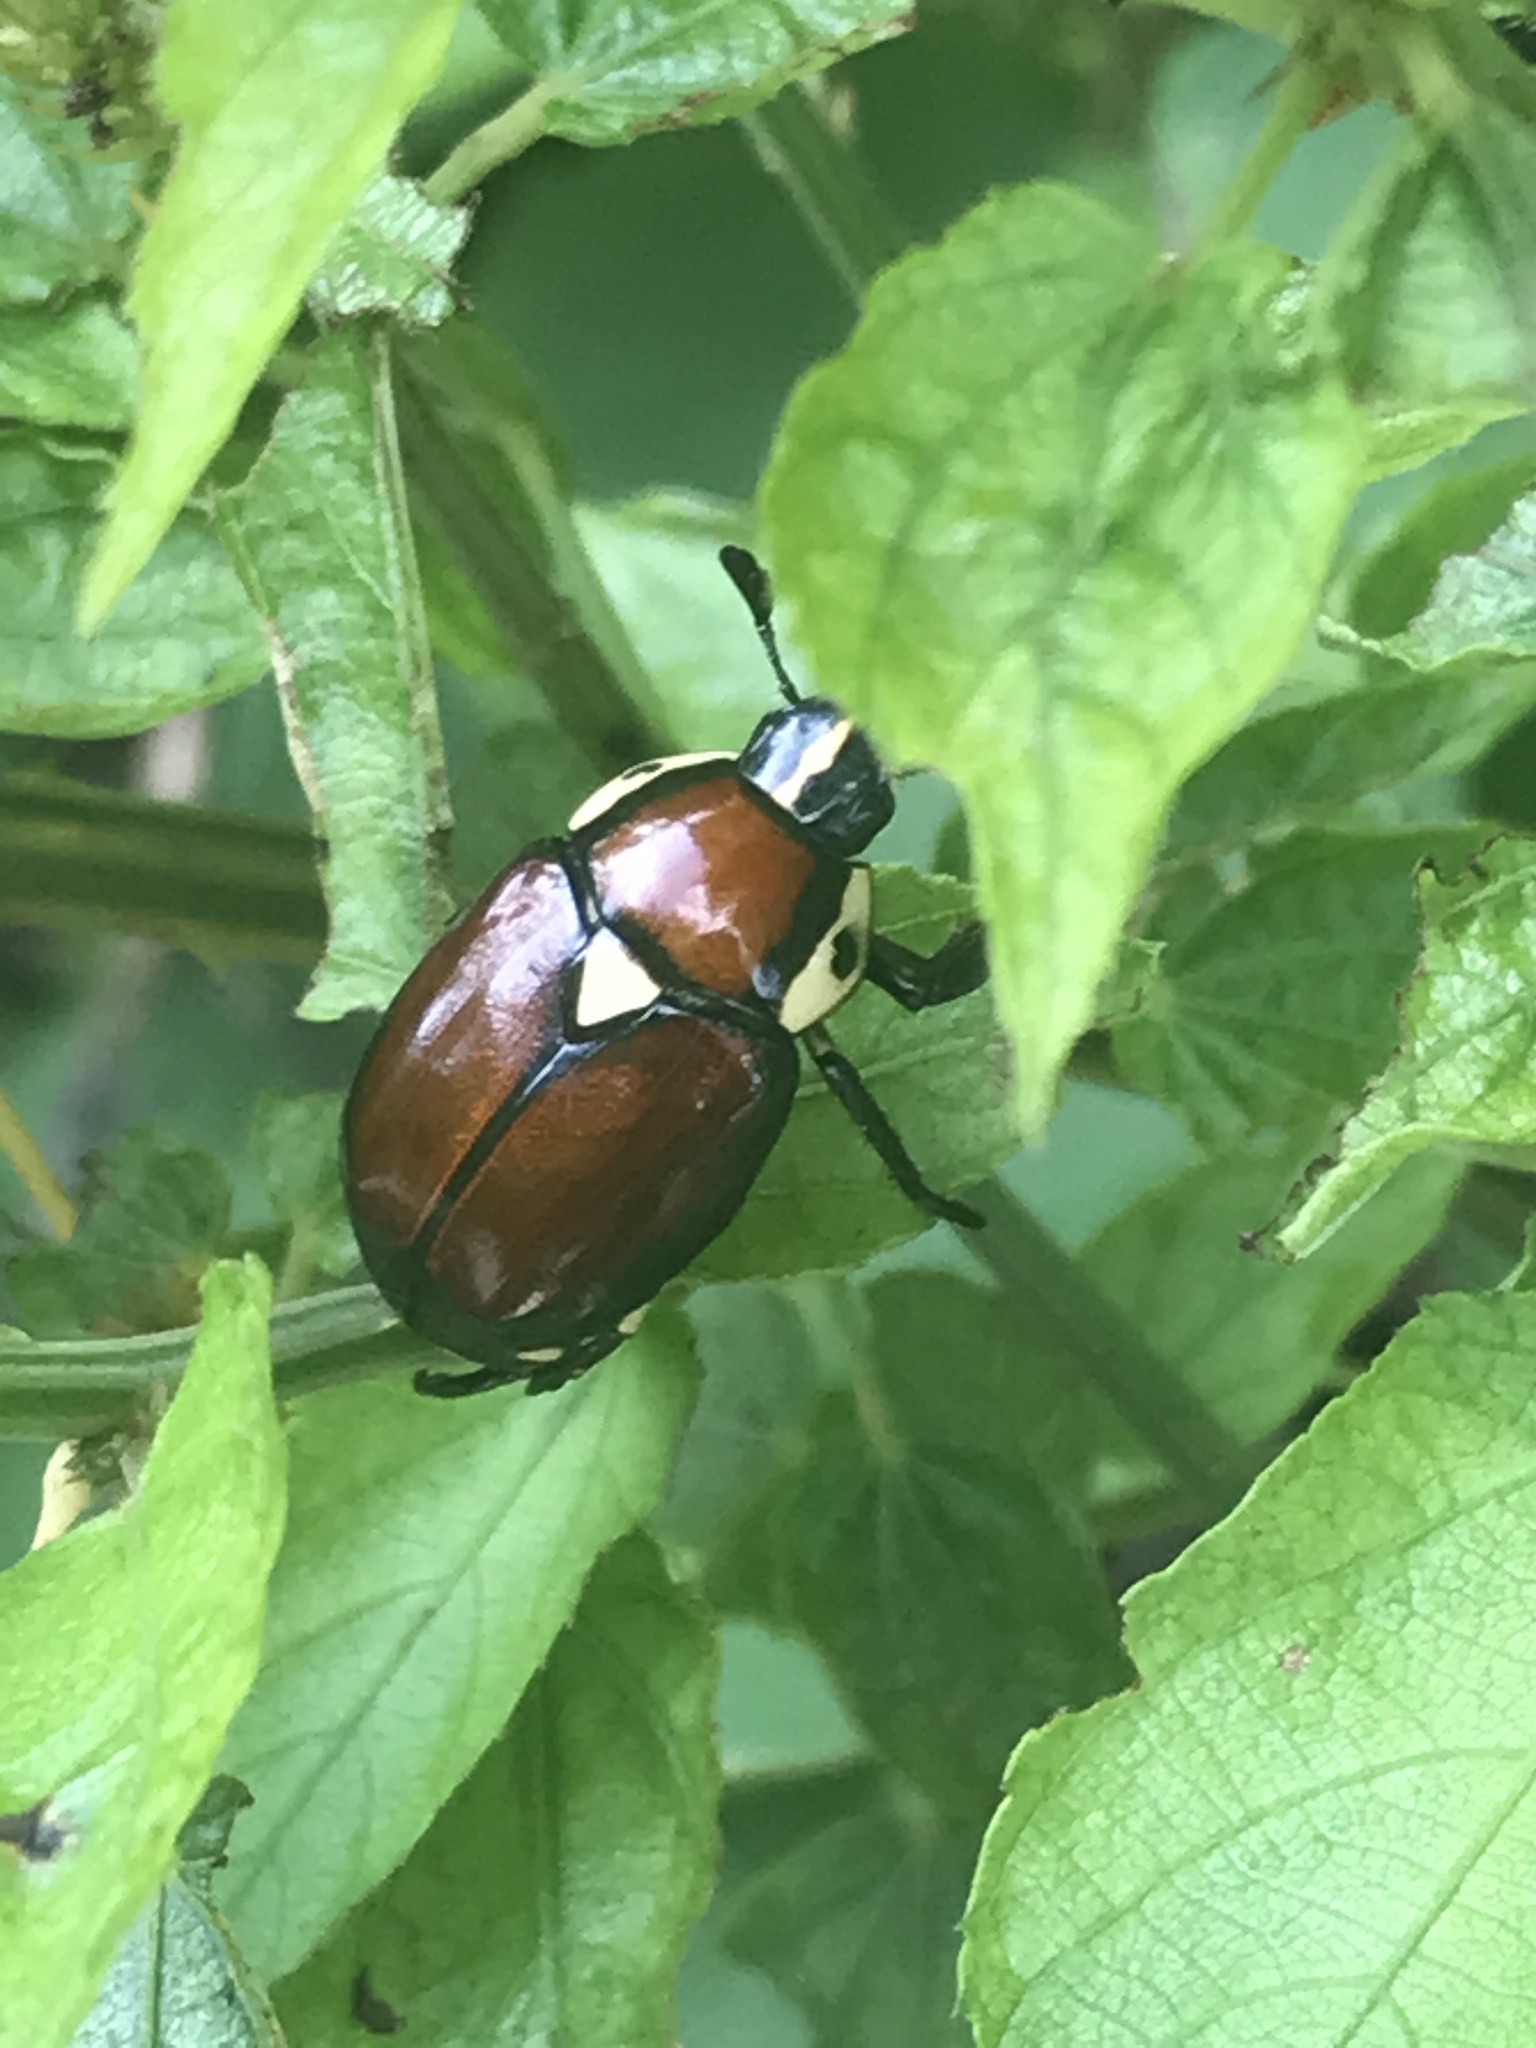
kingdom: Animalia
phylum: Arthropoda
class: Insecta
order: Coleoptera
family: Scarabaeidae
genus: Rutela
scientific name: Rutela versicolor
